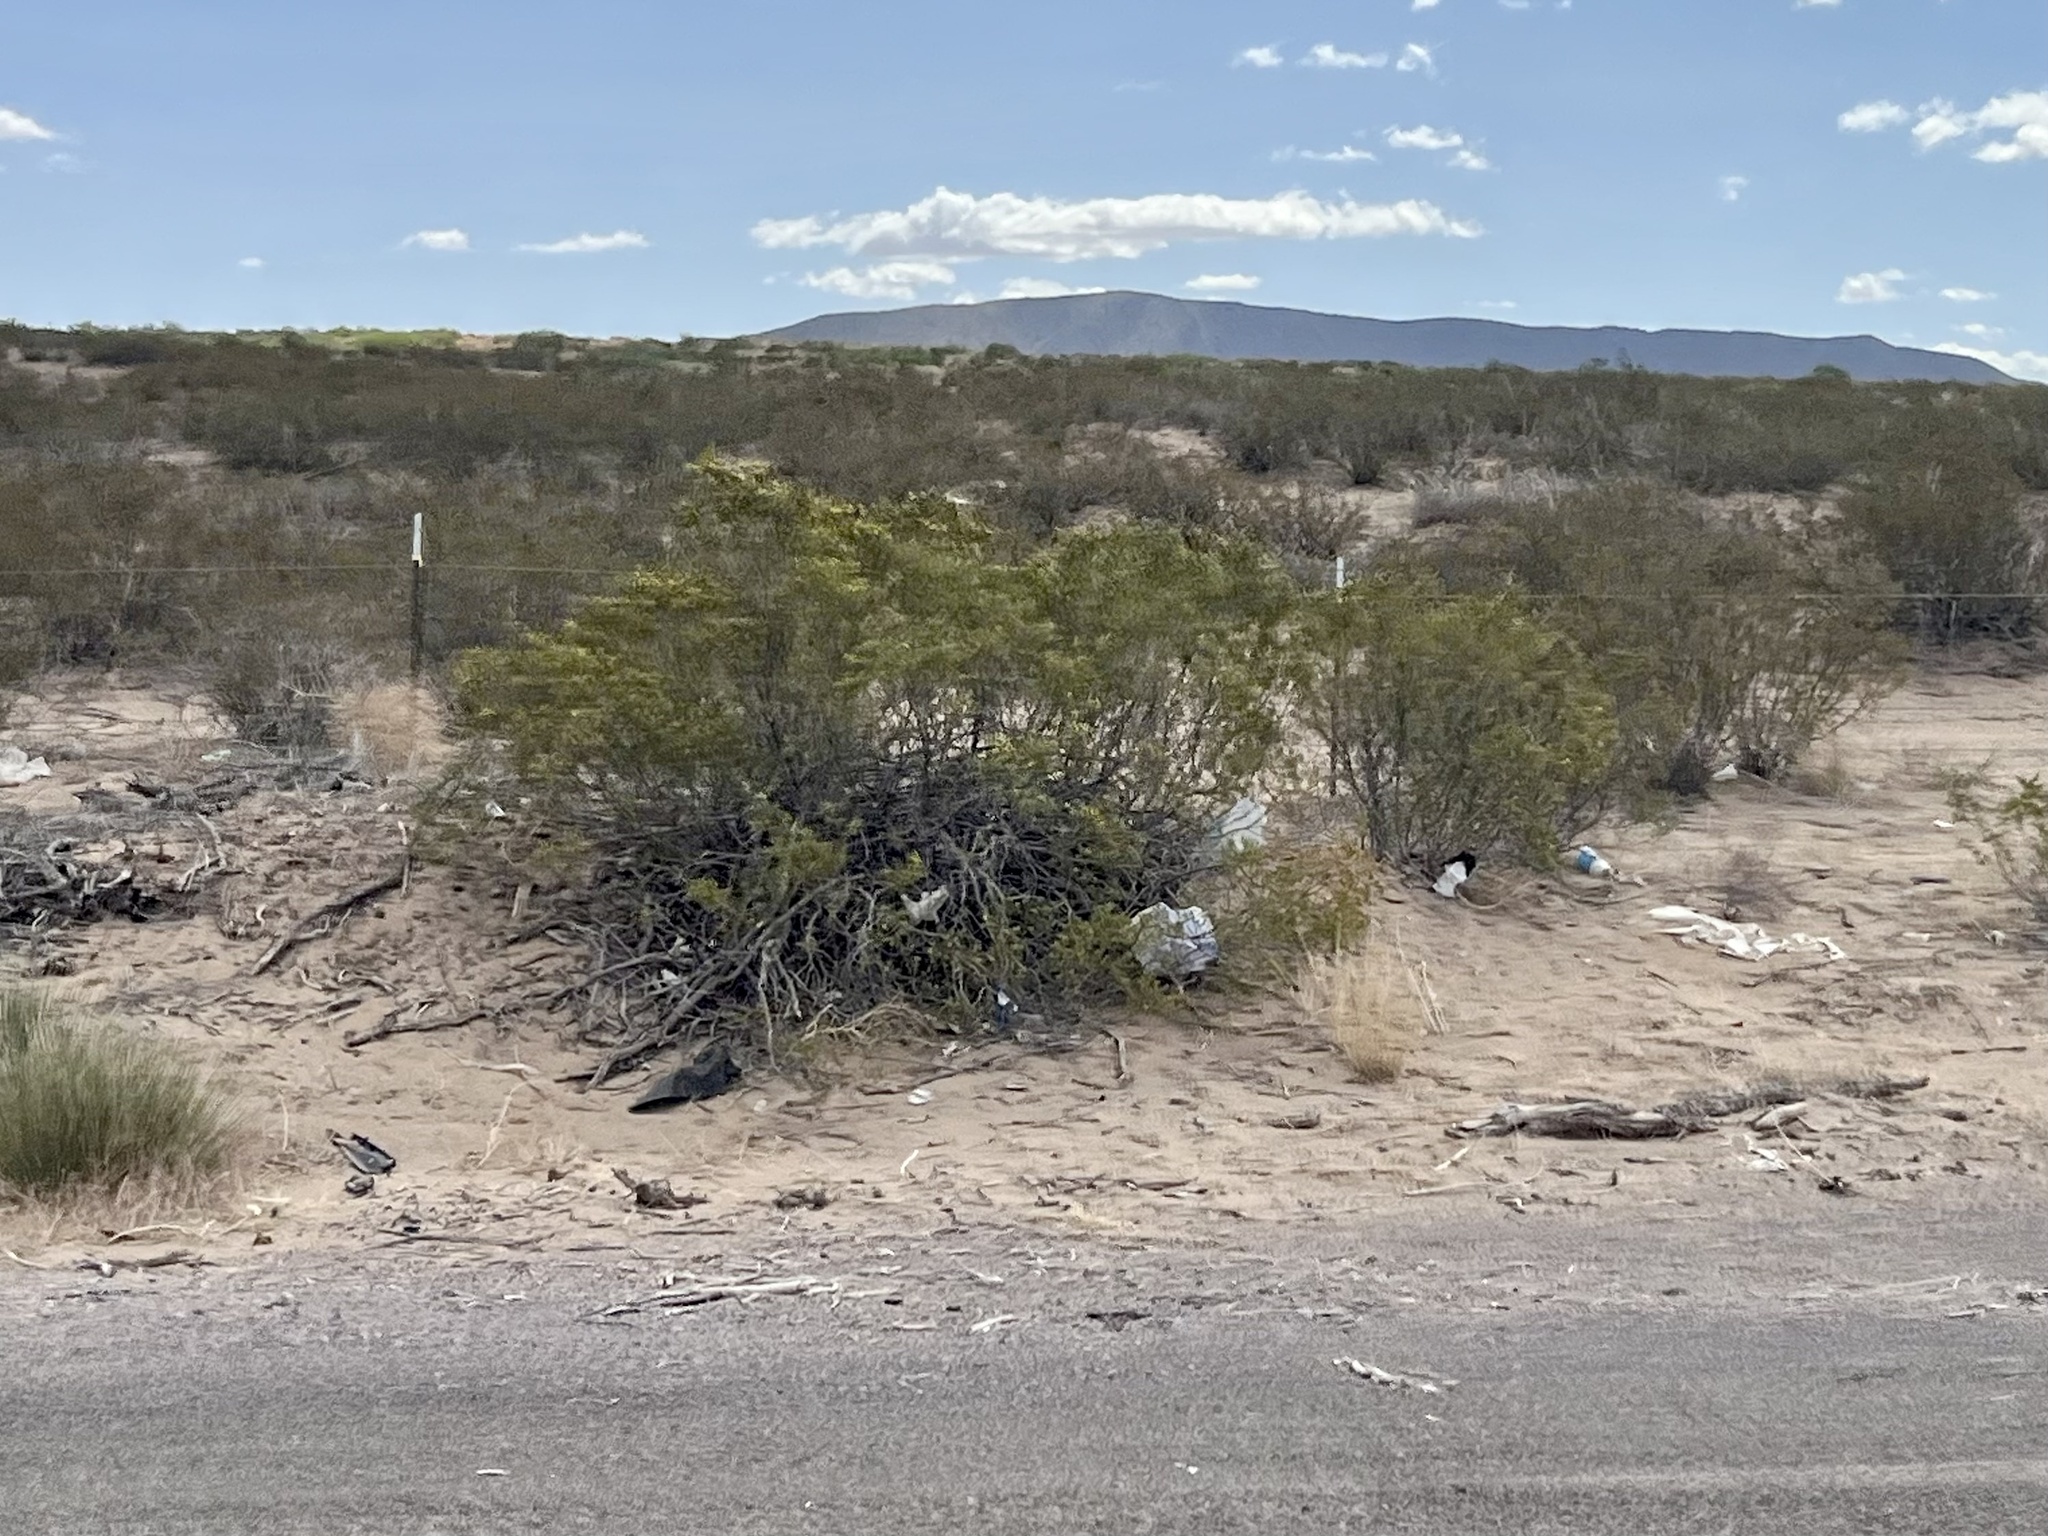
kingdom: Plantae
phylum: Tracheophyta
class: Magnoliopsida
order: Zygophyllales
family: Zygophyllaceae
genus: Larrea
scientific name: Larrea tridentata
